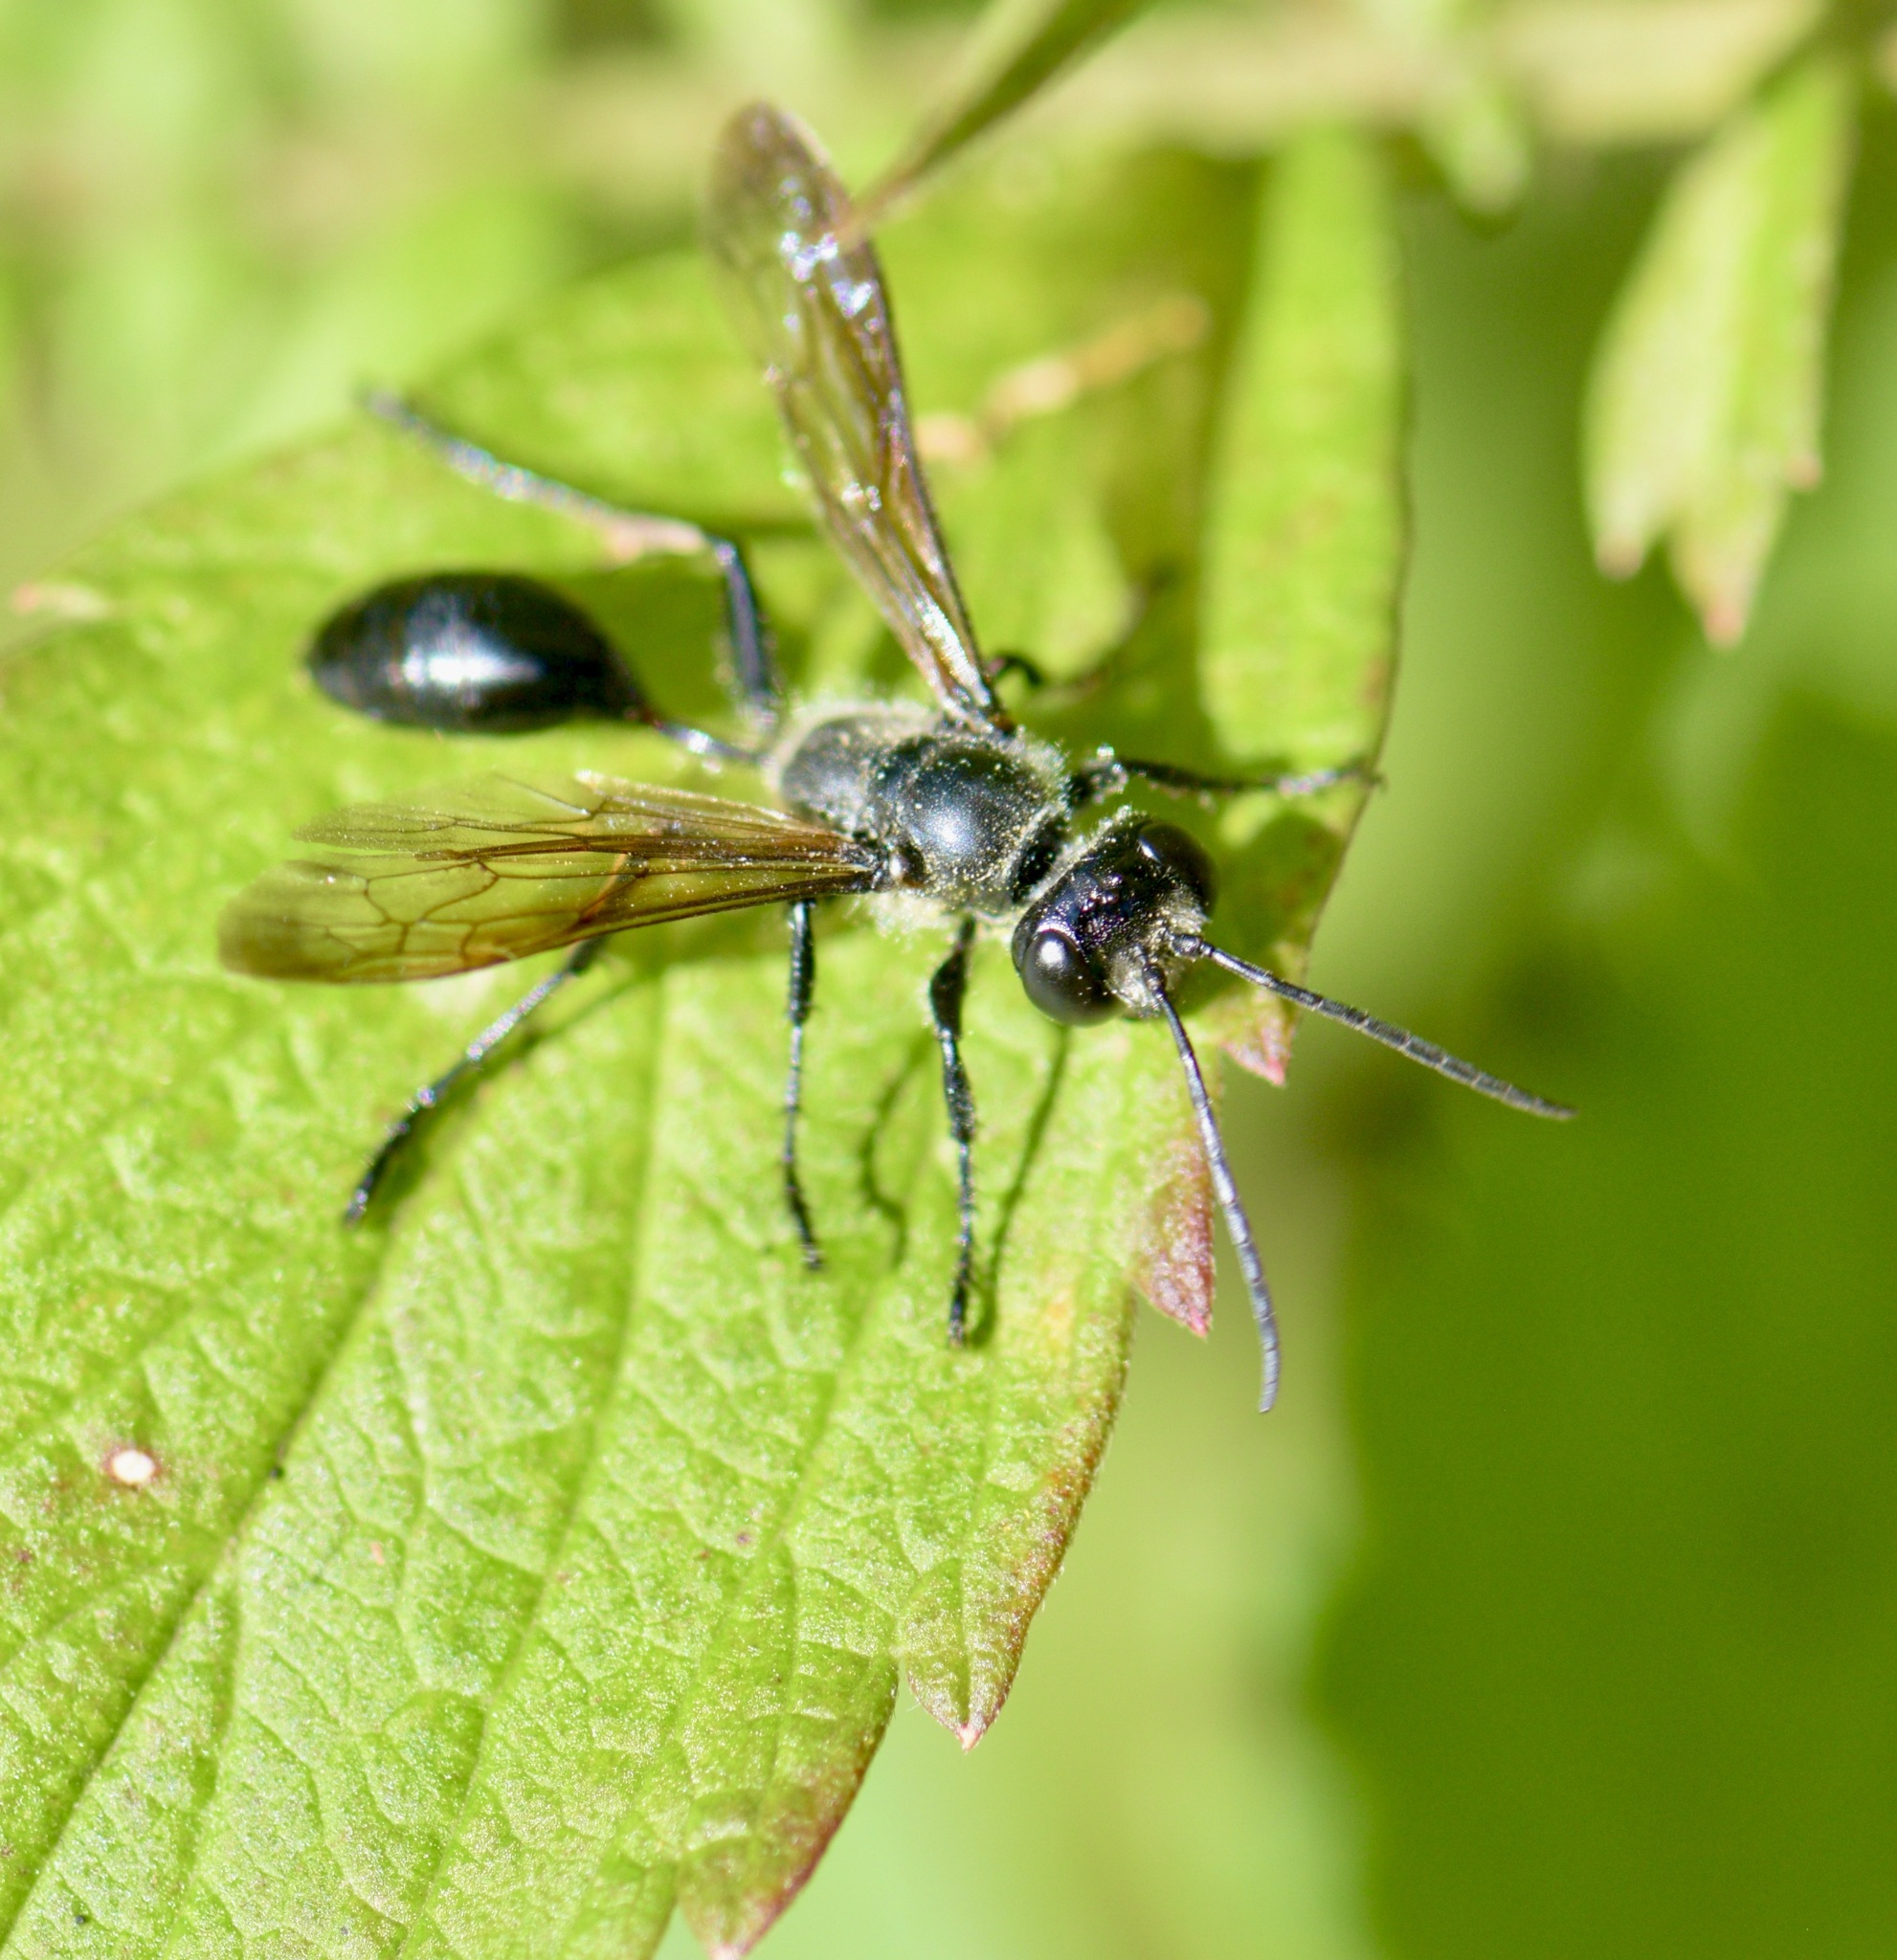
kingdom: Animalia
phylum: Arthropoda
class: Insecta
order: Hymenoptera
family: Sphecidae
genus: Isodontia
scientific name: Isodontia mexicana
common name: Mud dauber
